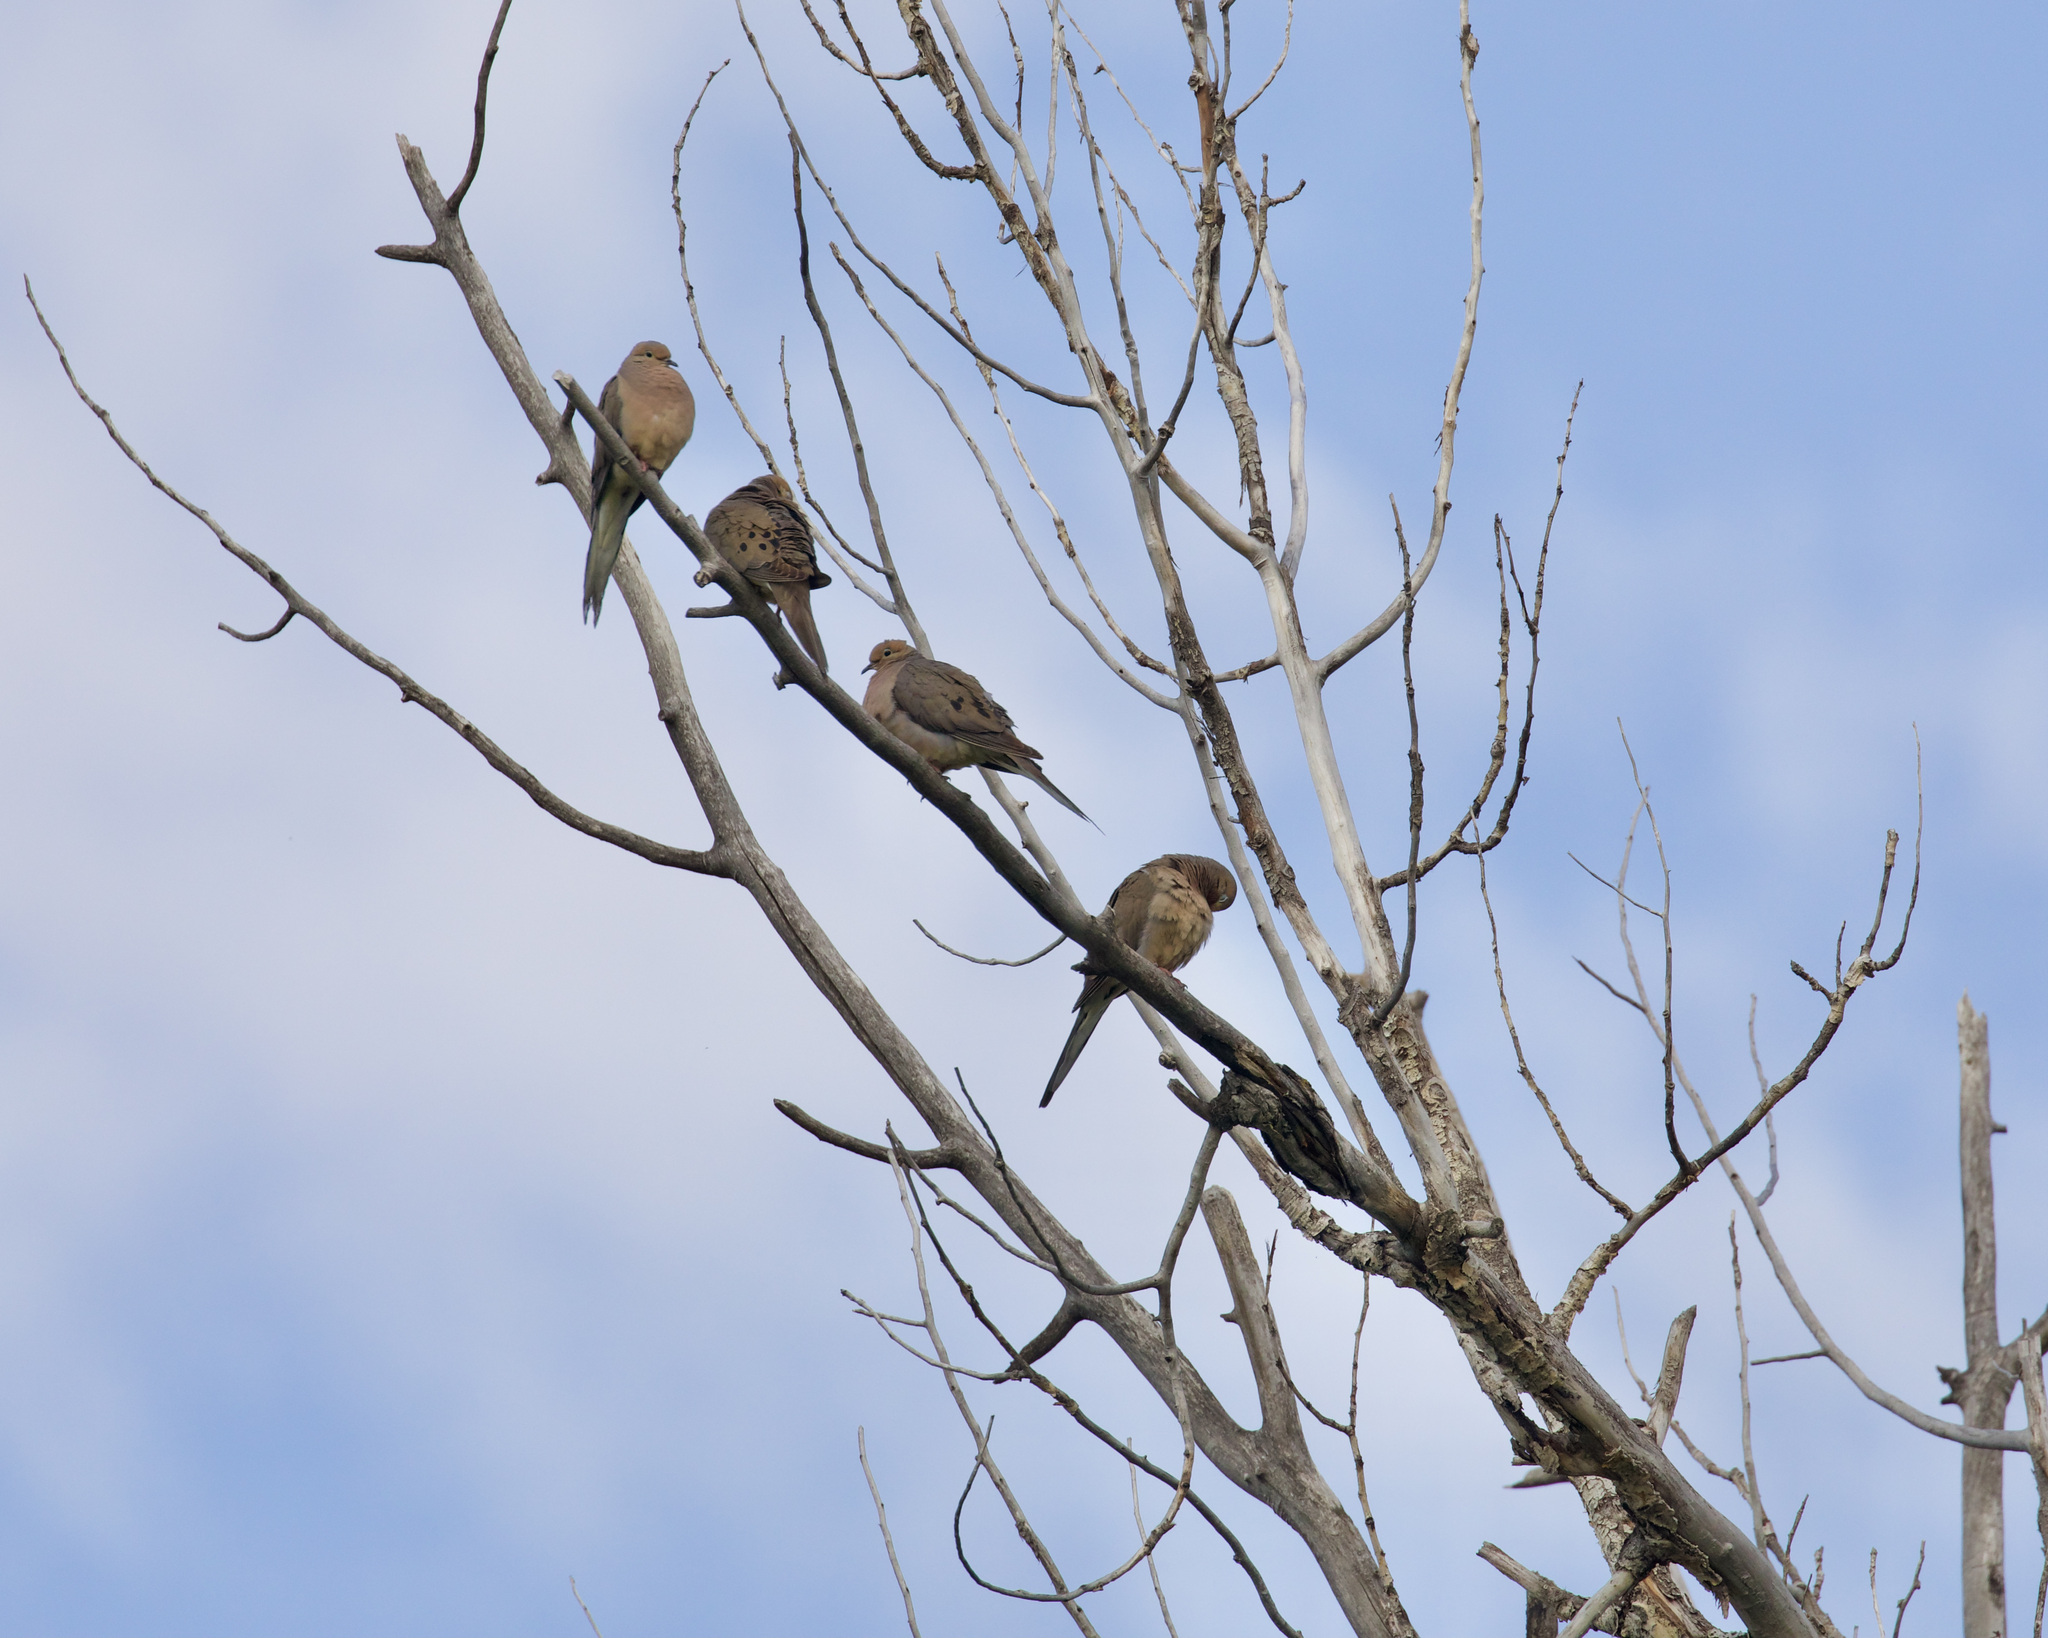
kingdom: Animalia
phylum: Chordata
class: Aves
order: Columbiformes
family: Columbidae
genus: Zenaida
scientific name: Zenaida macroura
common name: Mourning dove
